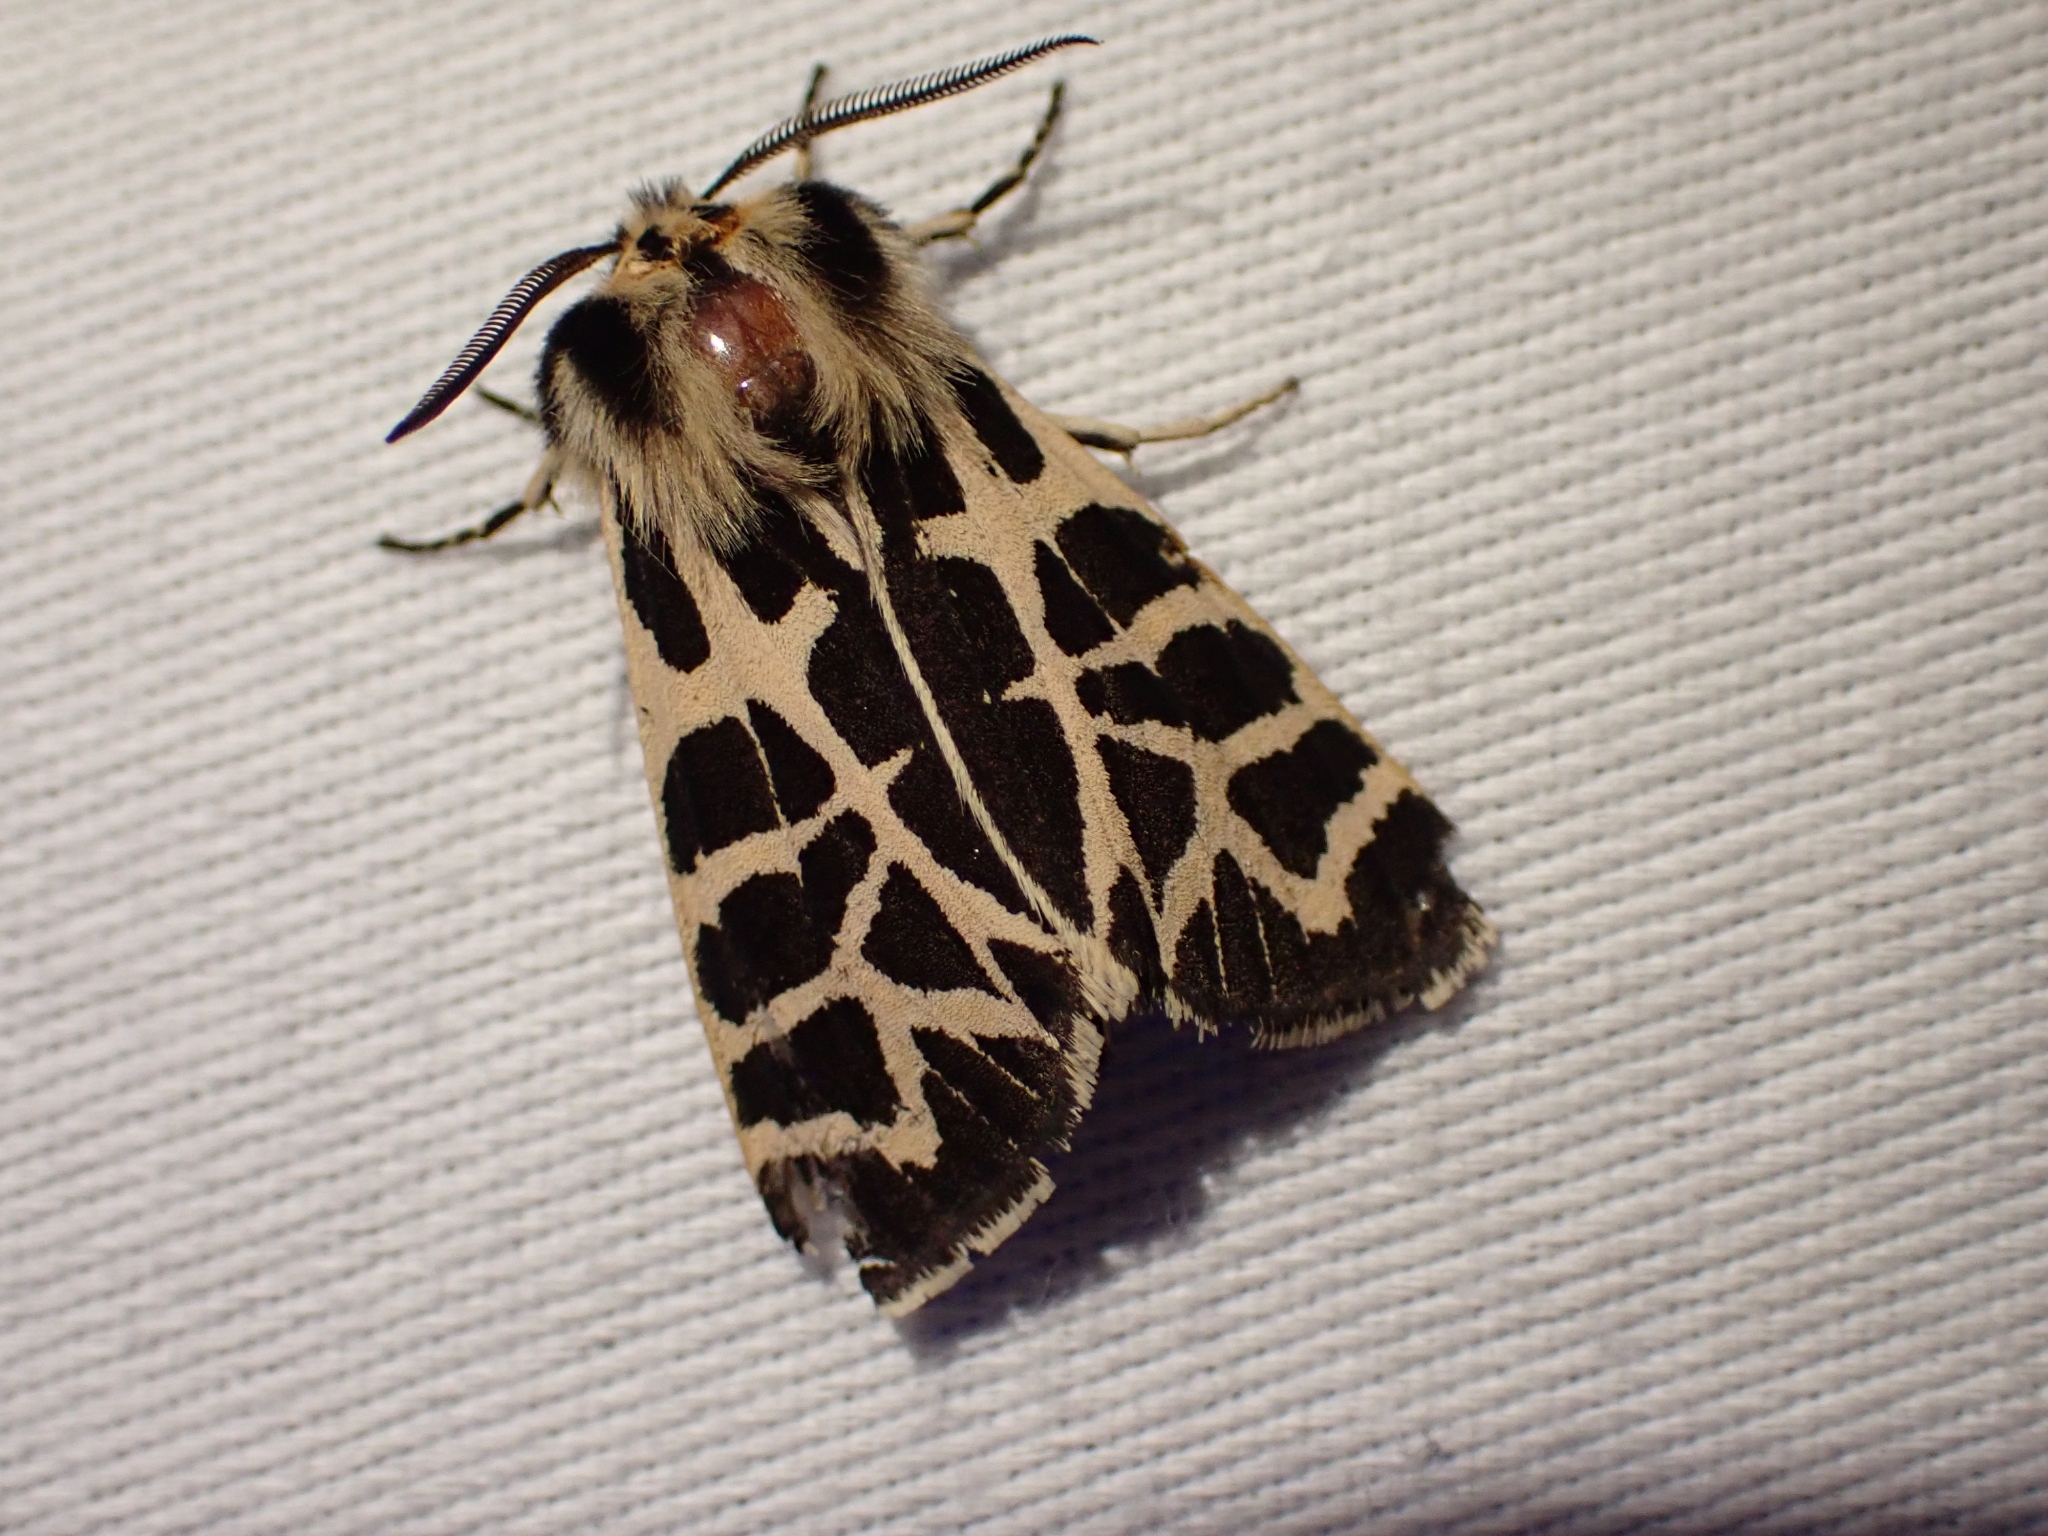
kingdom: Animalia
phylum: Arthropoda
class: Insecta
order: Lepidoptera
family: Erebidae
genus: Apantesis
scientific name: Apantesis
